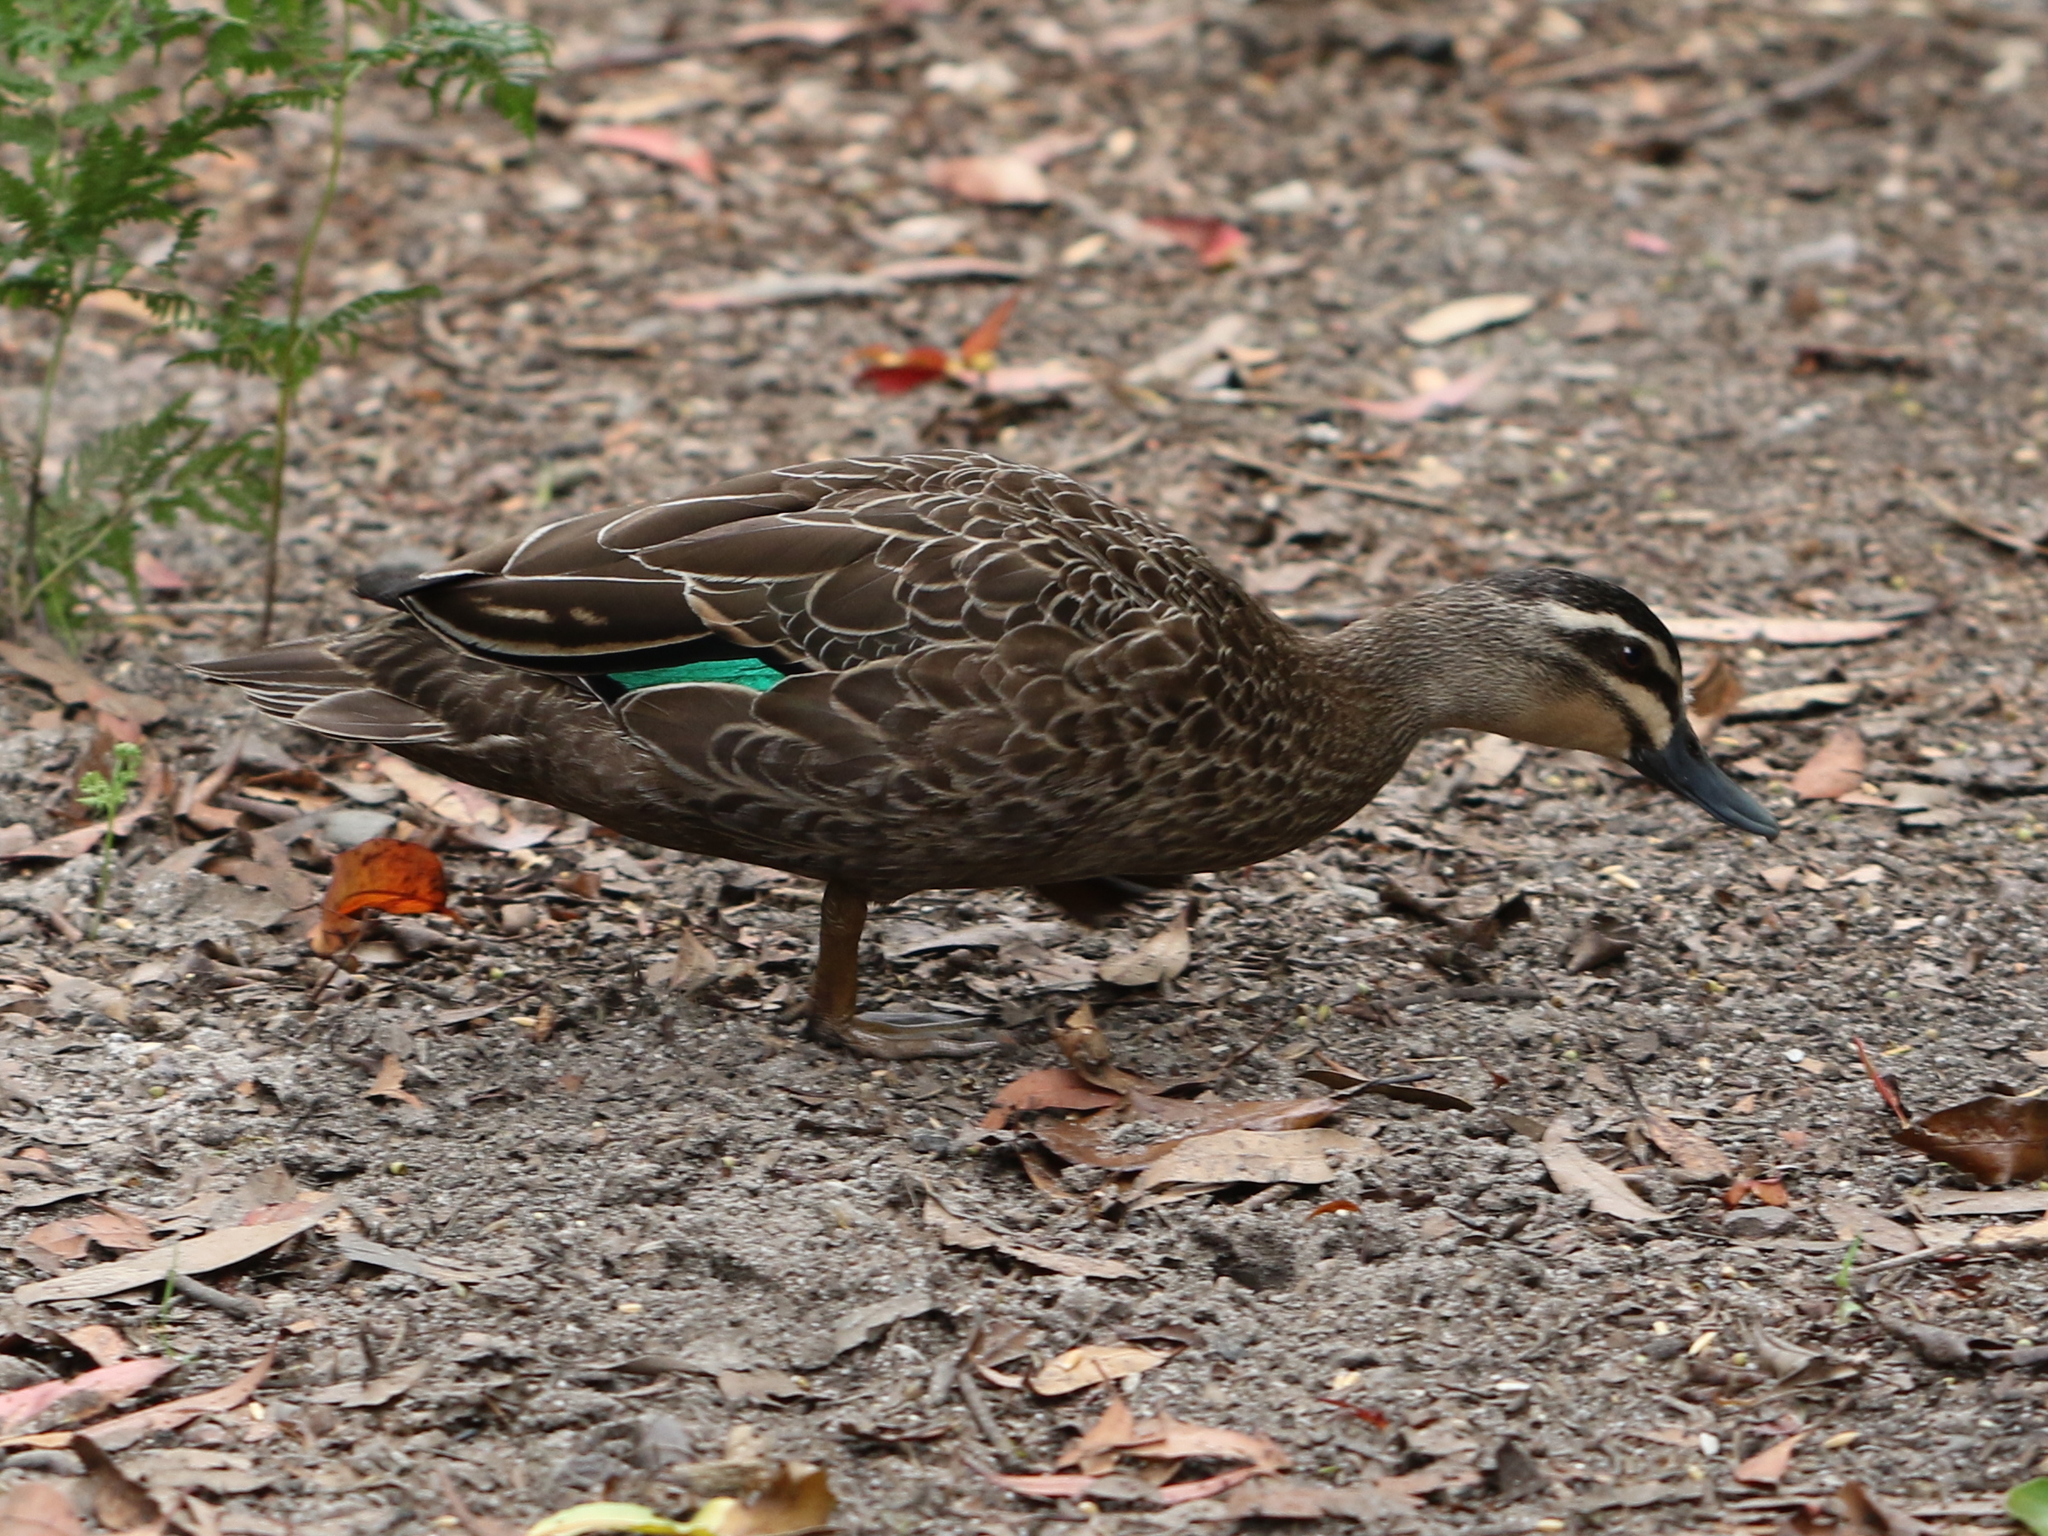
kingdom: Animalia
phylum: Chordata
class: Aves
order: Anseriformes
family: Anatidae
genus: Anas
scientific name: Anas superciliosa
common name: Pacific black duck
